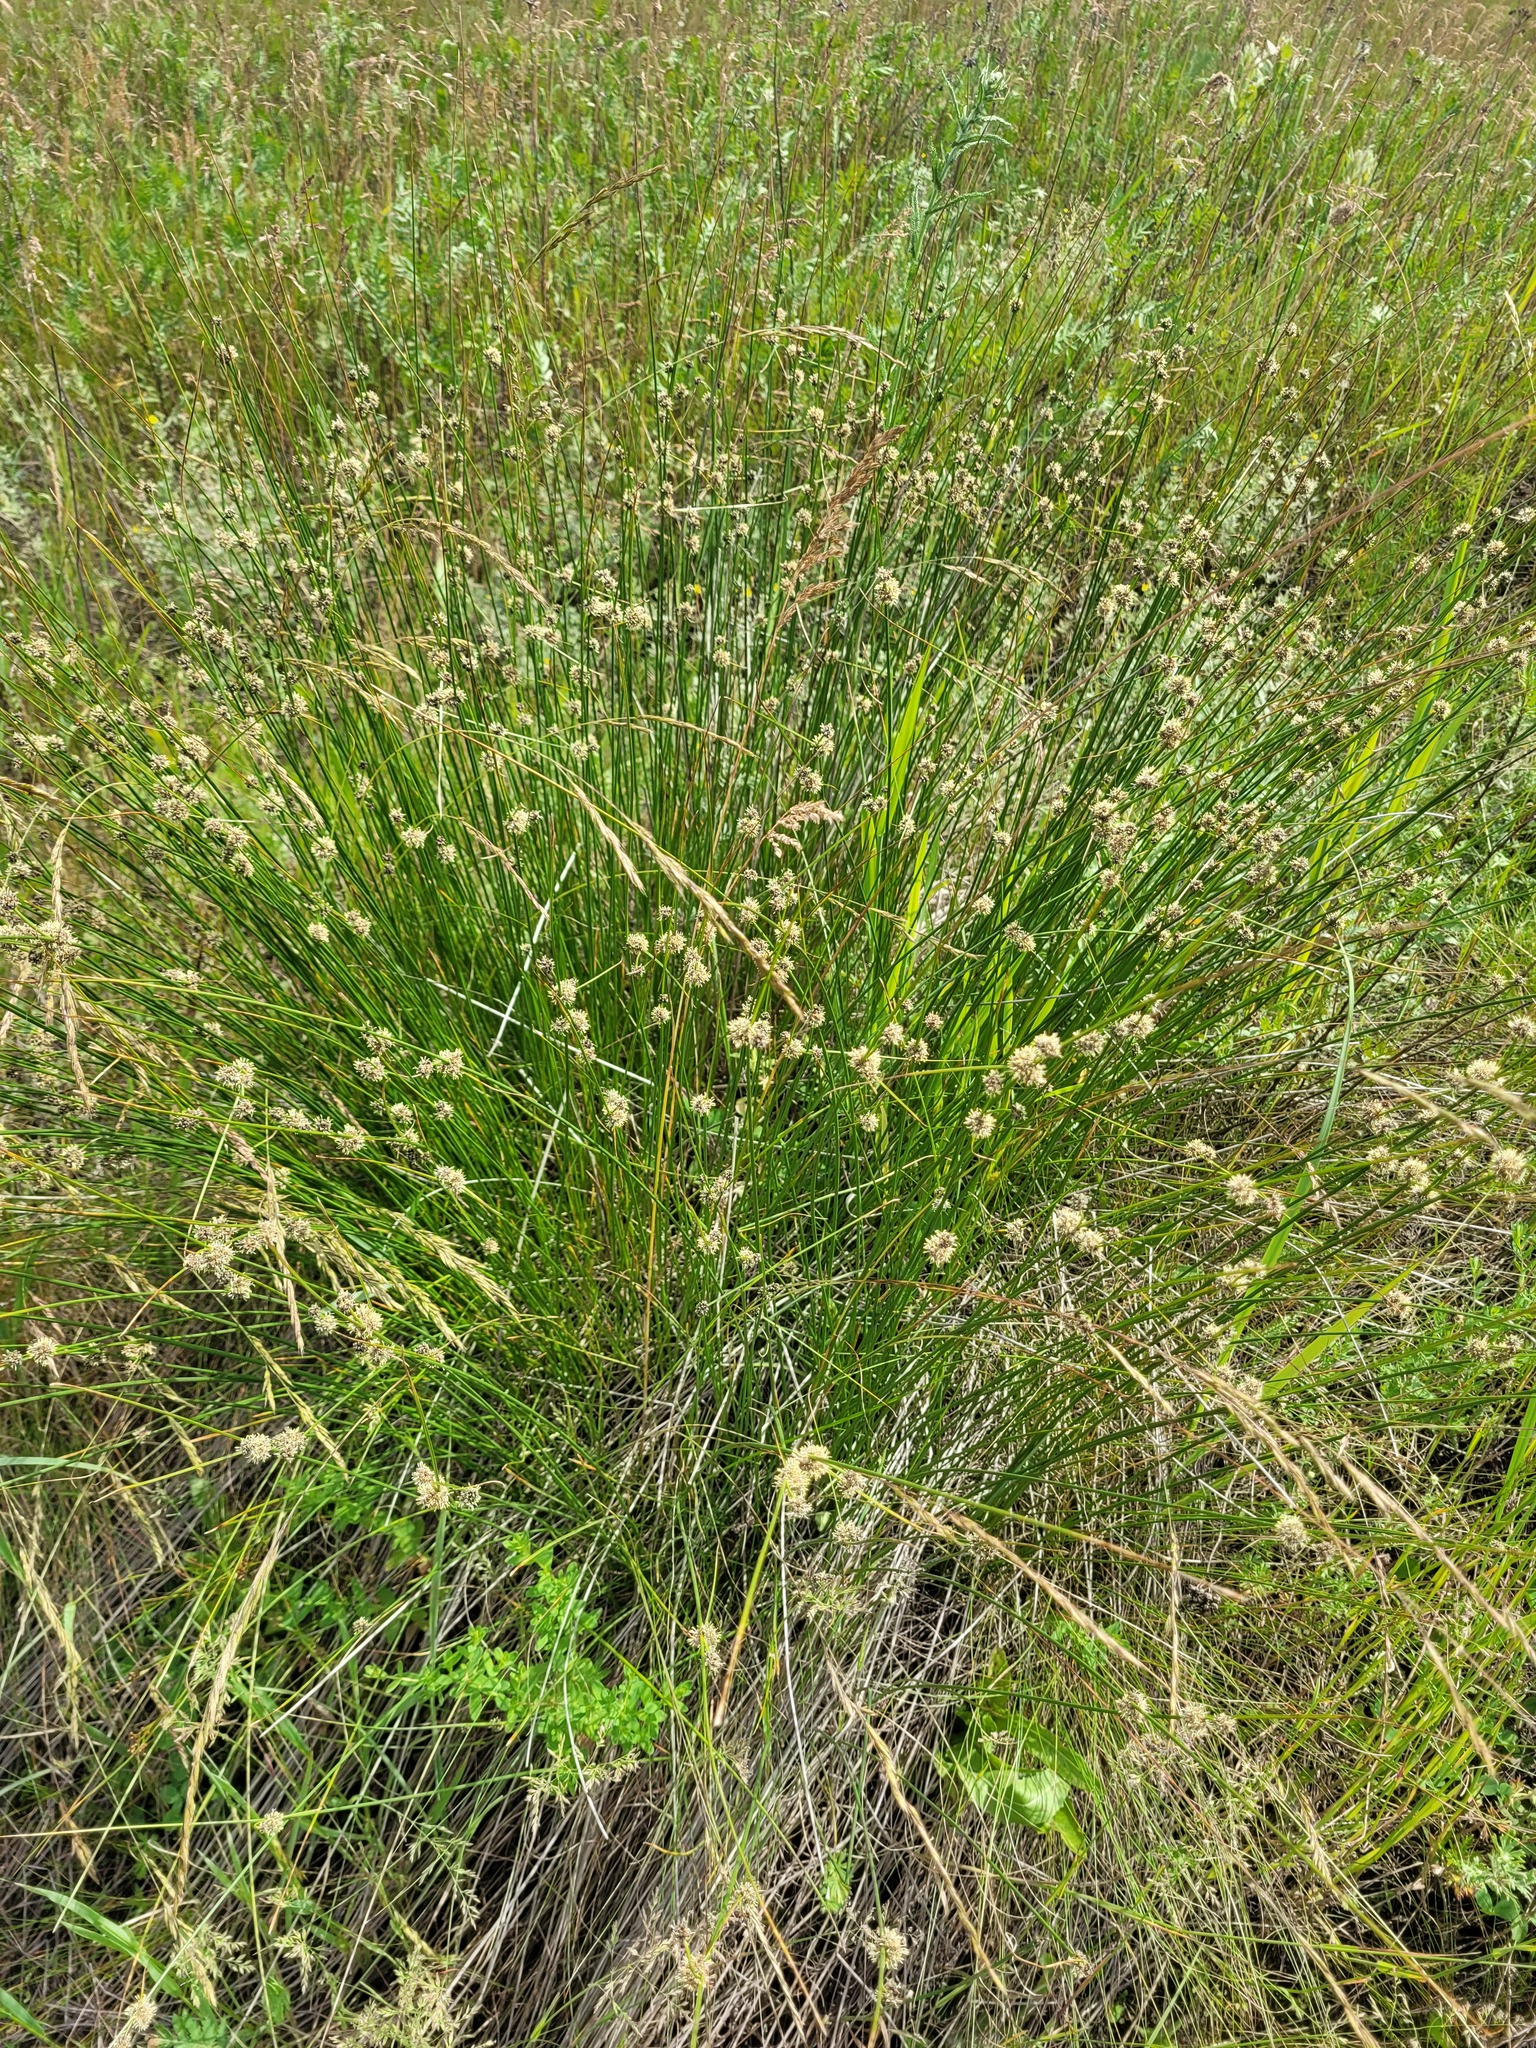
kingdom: Plantae
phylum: Tracheophyta
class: Liliopsida
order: Poales
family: Cyperaceae
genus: Scirpoides
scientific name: Scirpoides holoschoenus
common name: Round-headed club-rush
